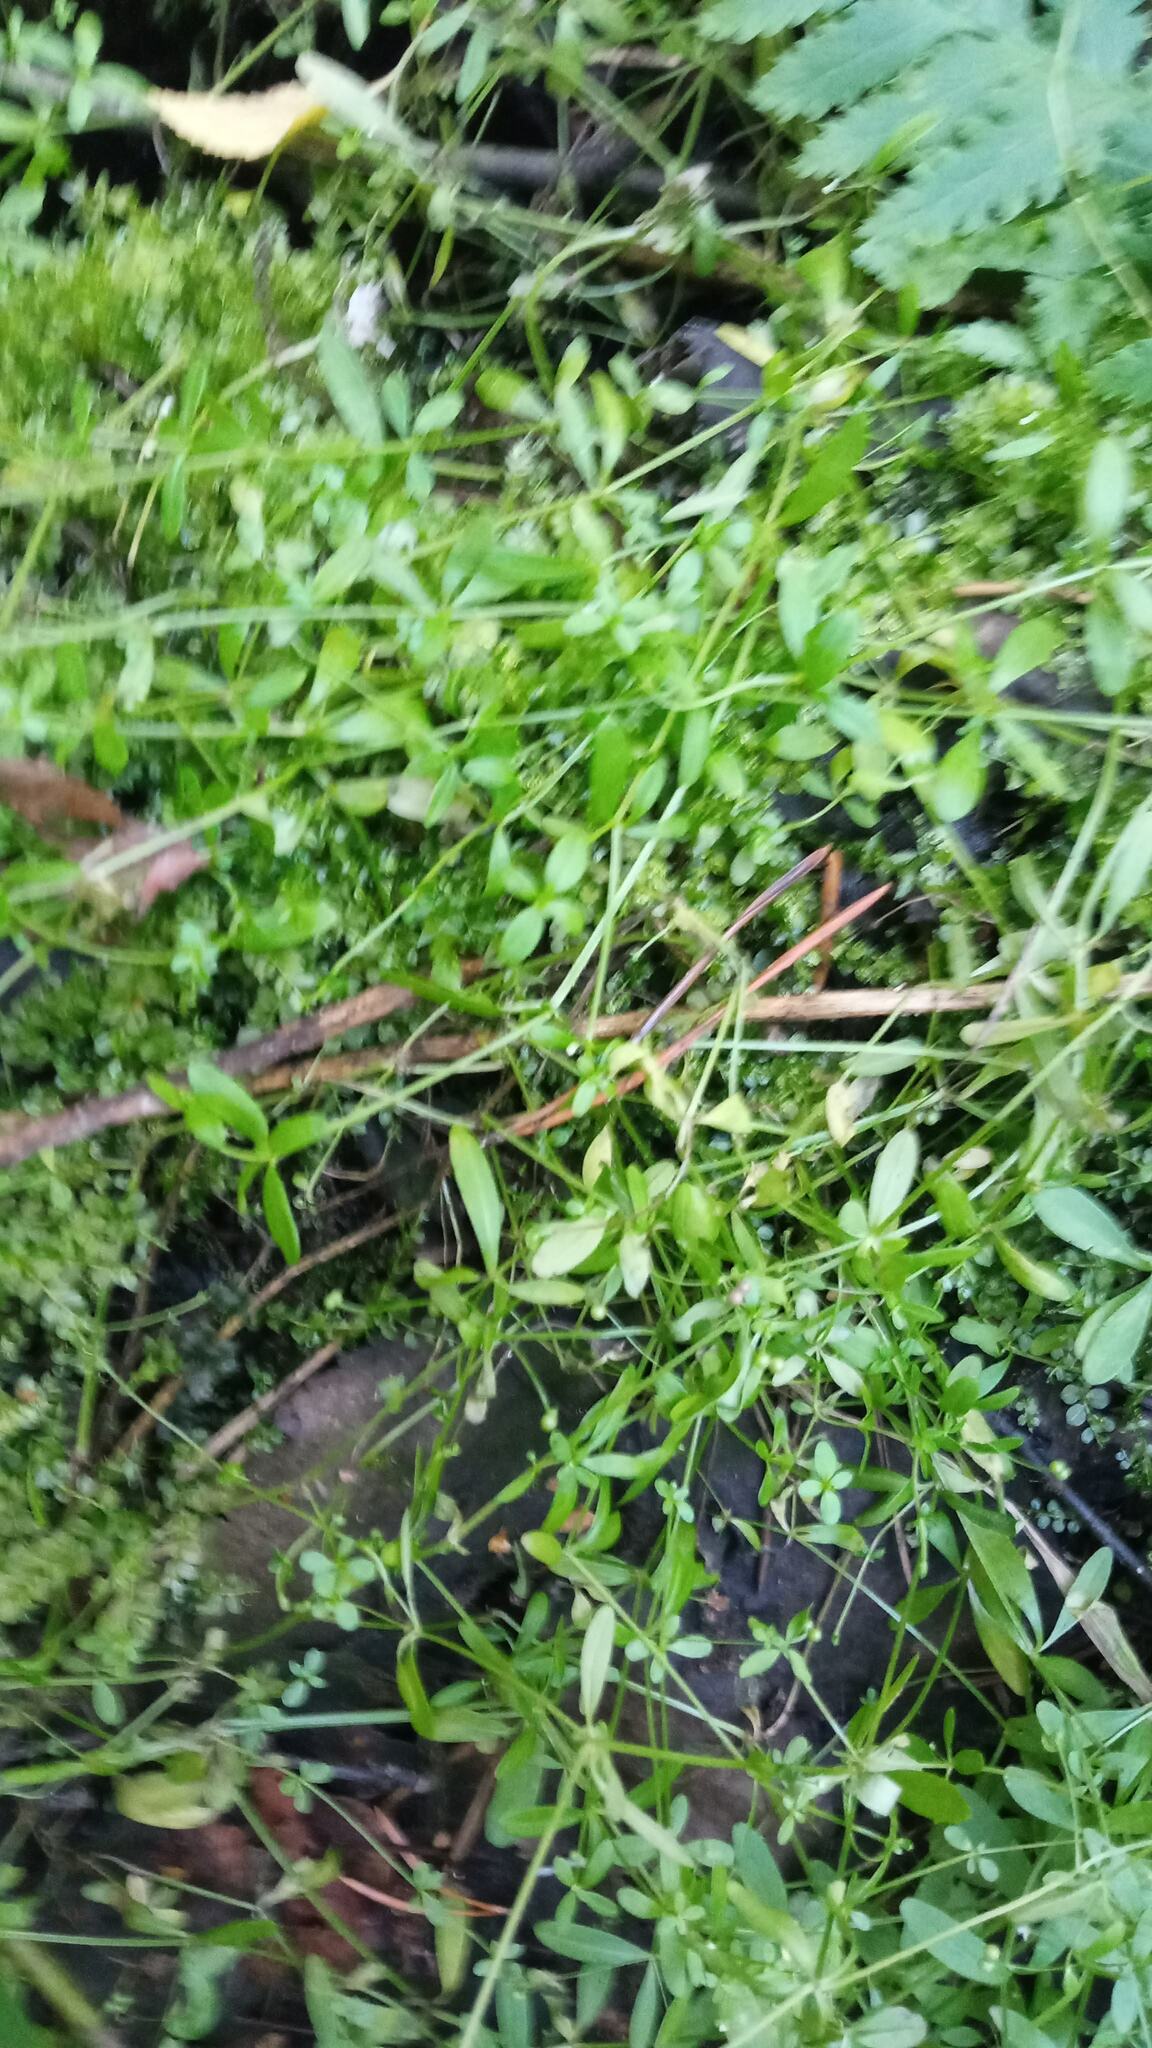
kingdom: Plantae
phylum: Tracheophyta
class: Magnoliopsida
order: Gentianales
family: Rubiaceae
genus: Galium
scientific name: Galium palustre
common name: Common marsh-bedstraw
